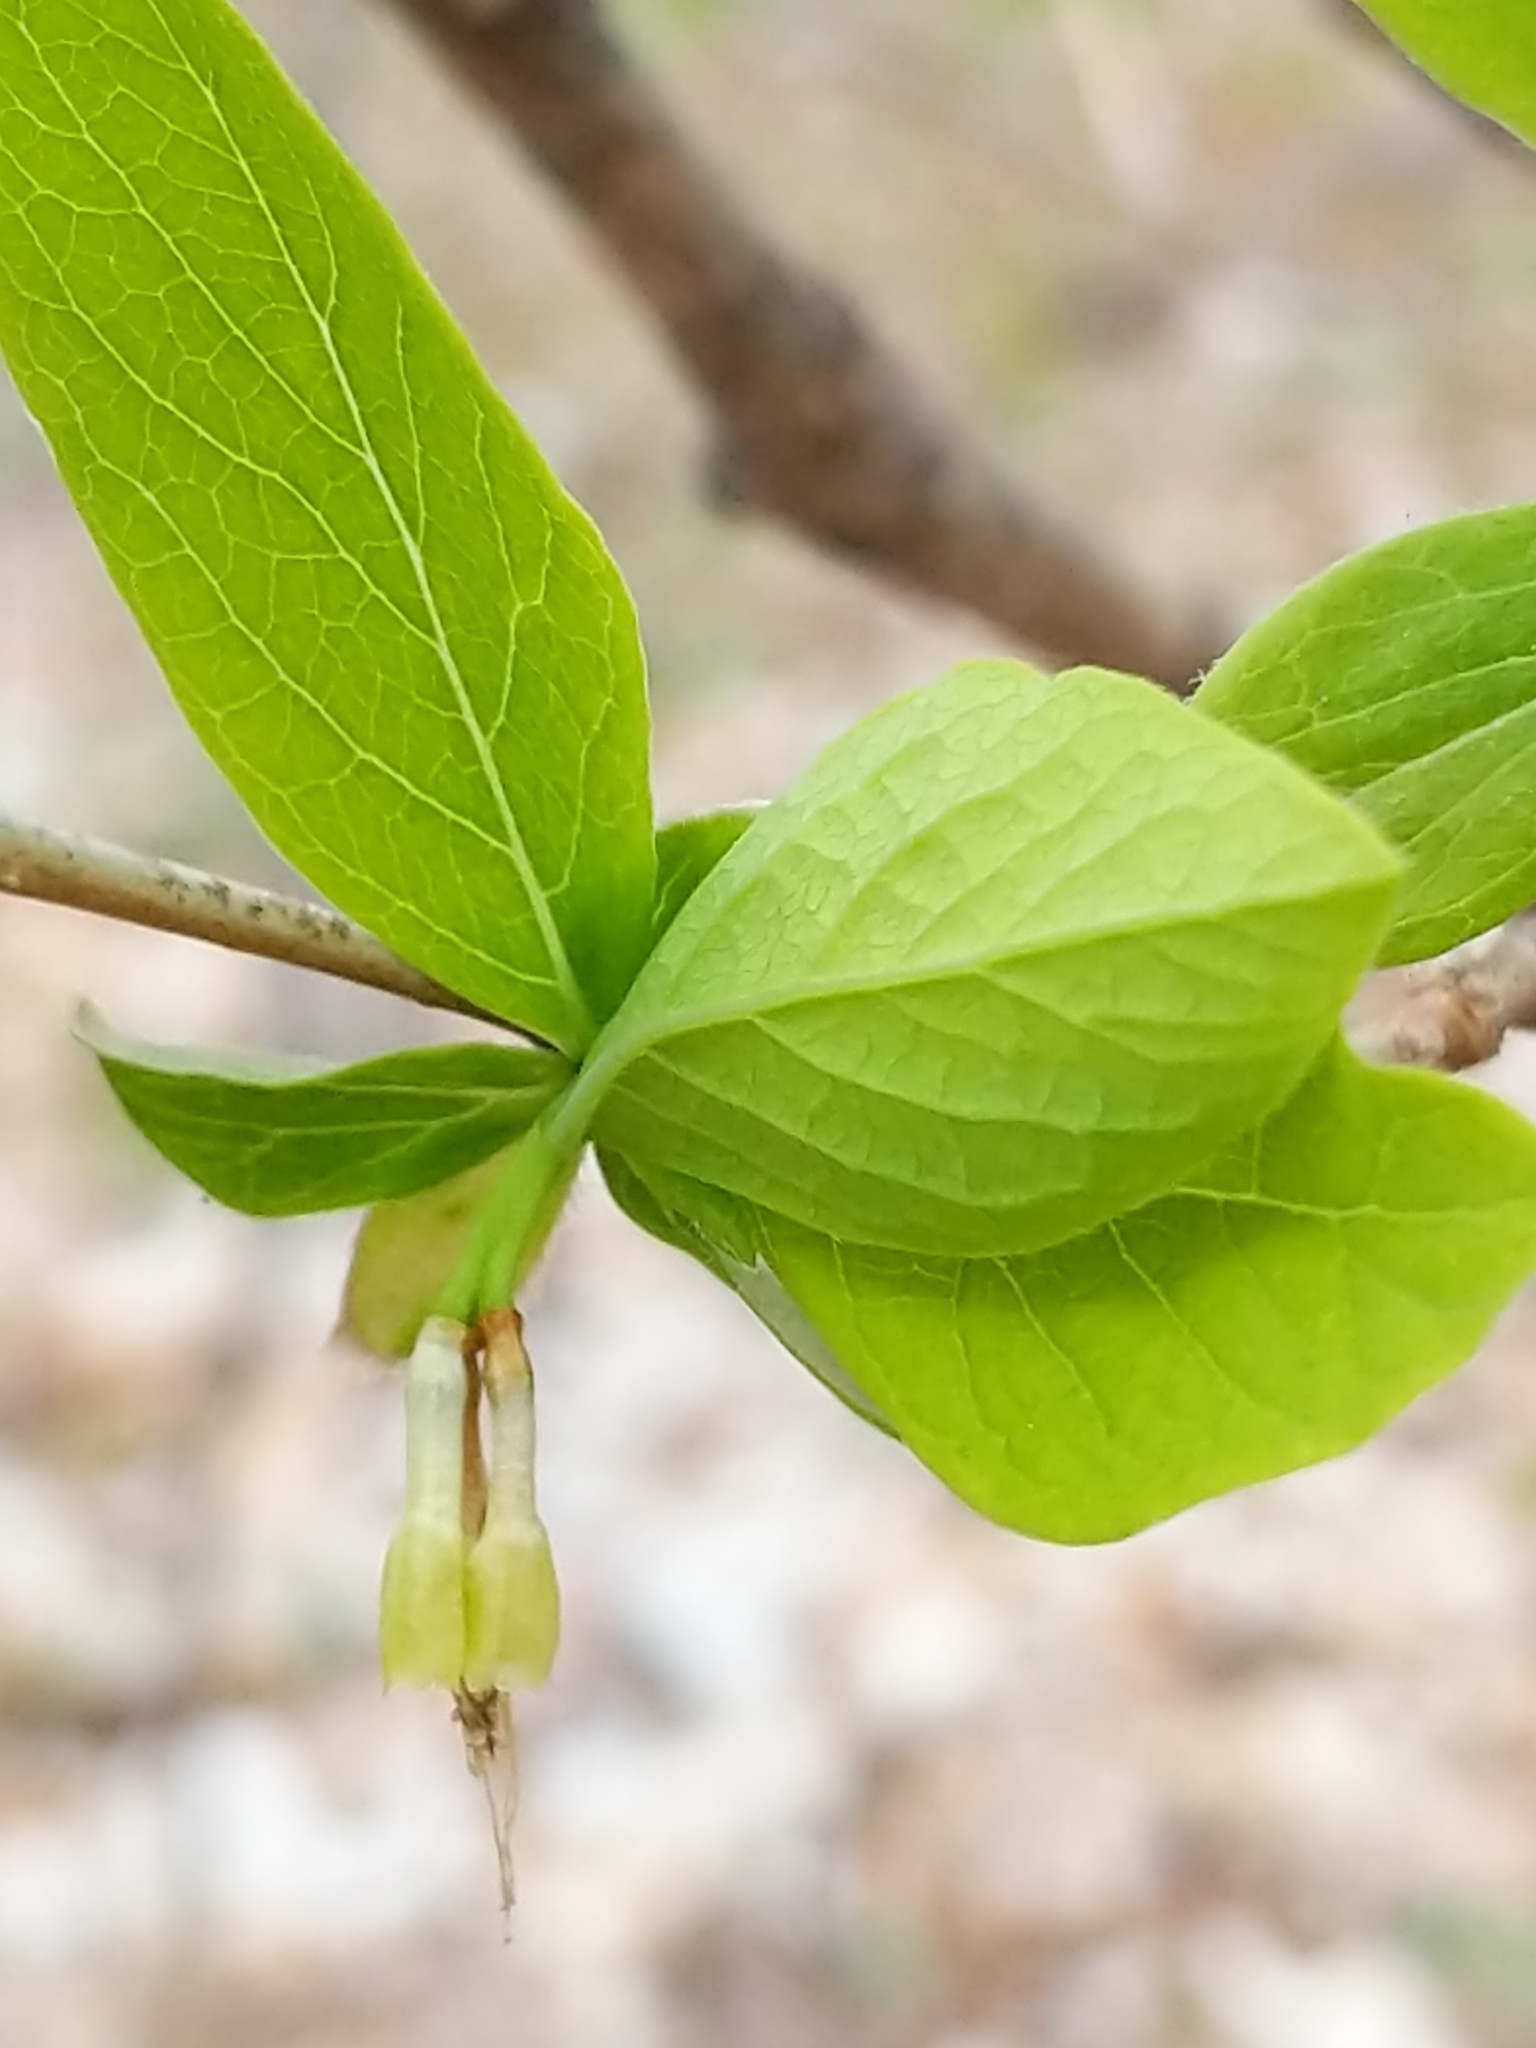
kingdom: Plantae
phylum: Tracheophyta
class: Magnoliopsida
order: Malvales
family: Thymelaeaceae
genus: Dirca
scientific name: Dirca palustris
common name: Leatherwood
